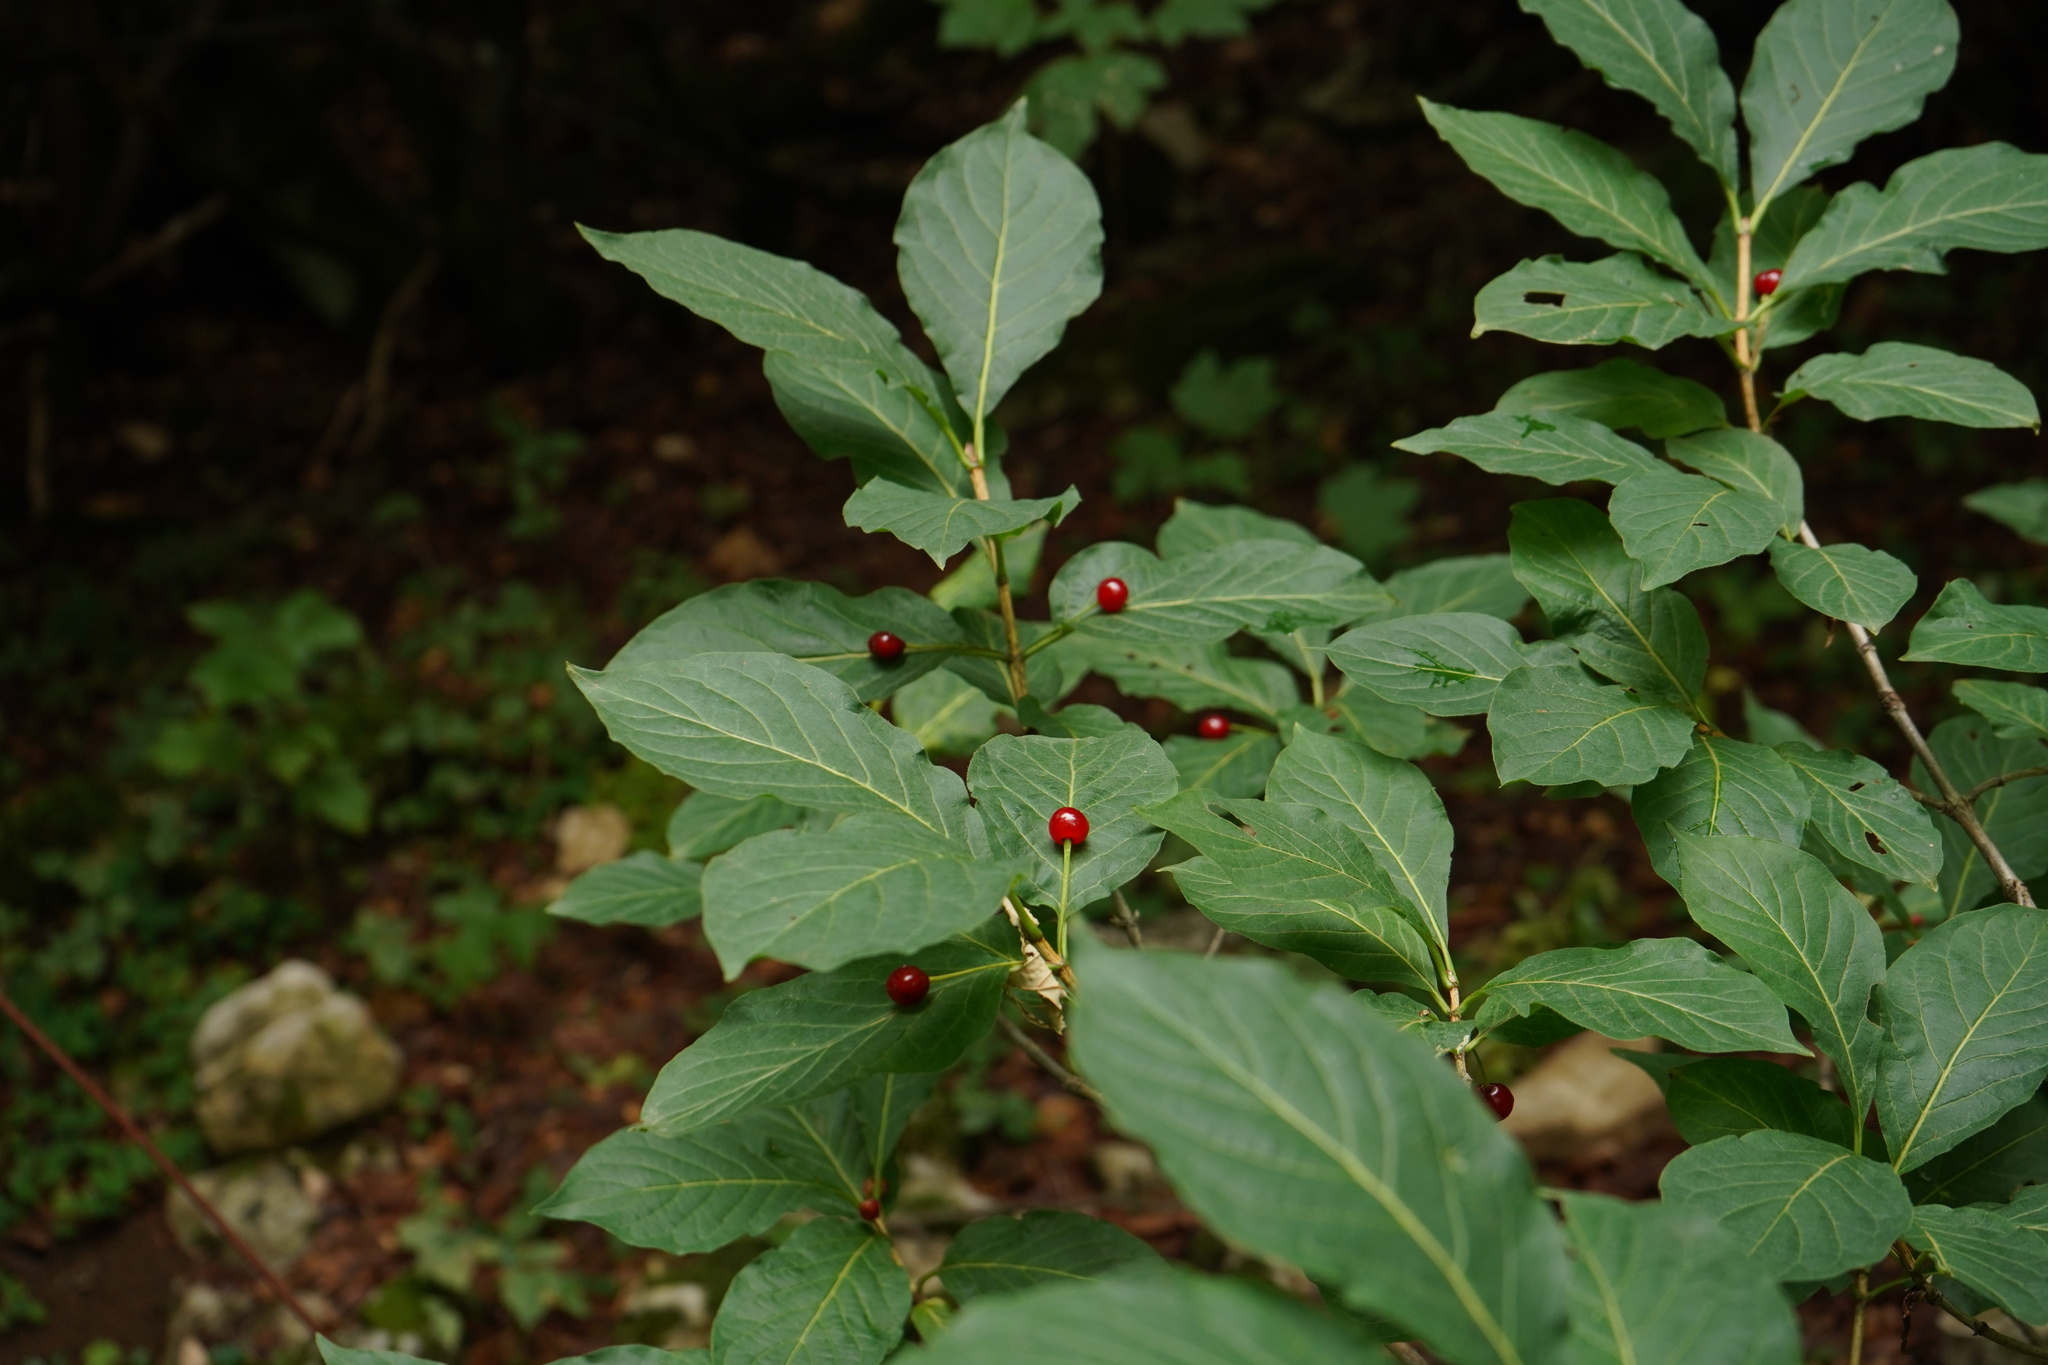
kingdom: Plantae
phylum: Tracheophyta
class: Magnoliopsida
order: Dipsacales
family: Caprifoliaceae
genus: Lonicera
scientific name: Lonicera alpigena
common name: Alpine honeysuckle
